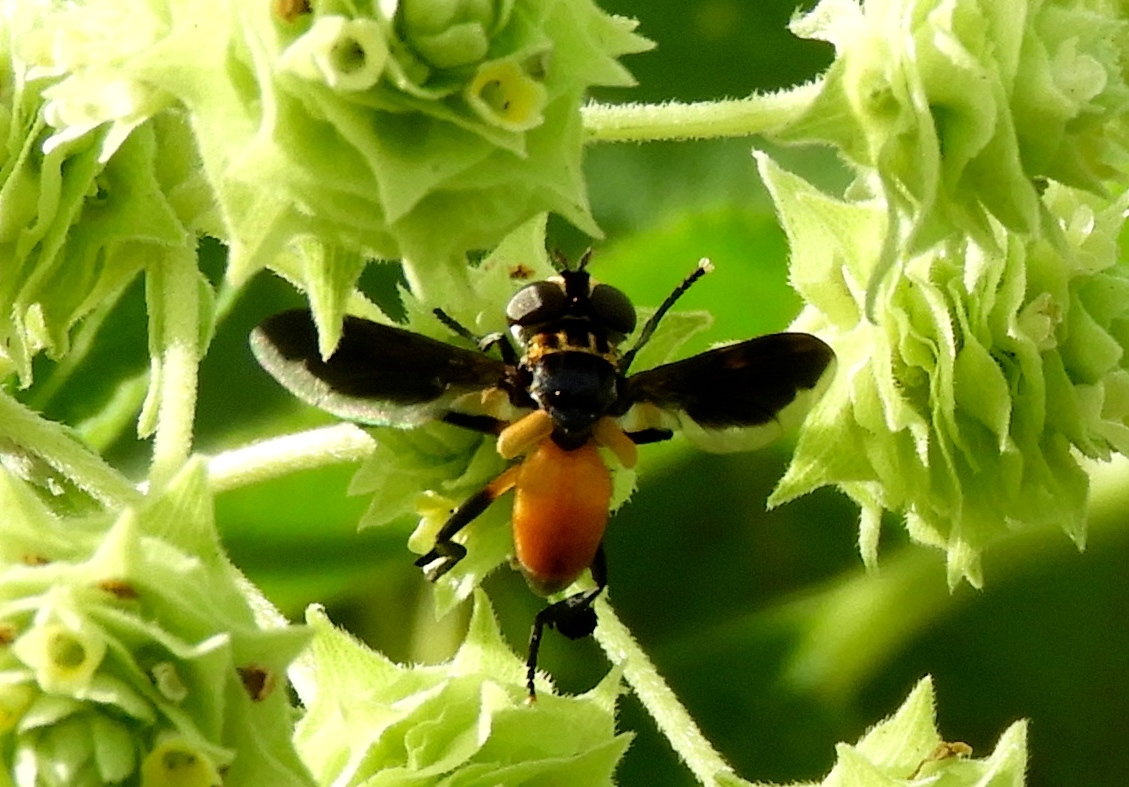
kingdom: Animalia
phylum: Arthropoda
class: Insecta
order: Diptera
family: Tachinidae
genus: Trichopoda
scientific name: Trichopoda pennipes
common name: Tachinid fly
